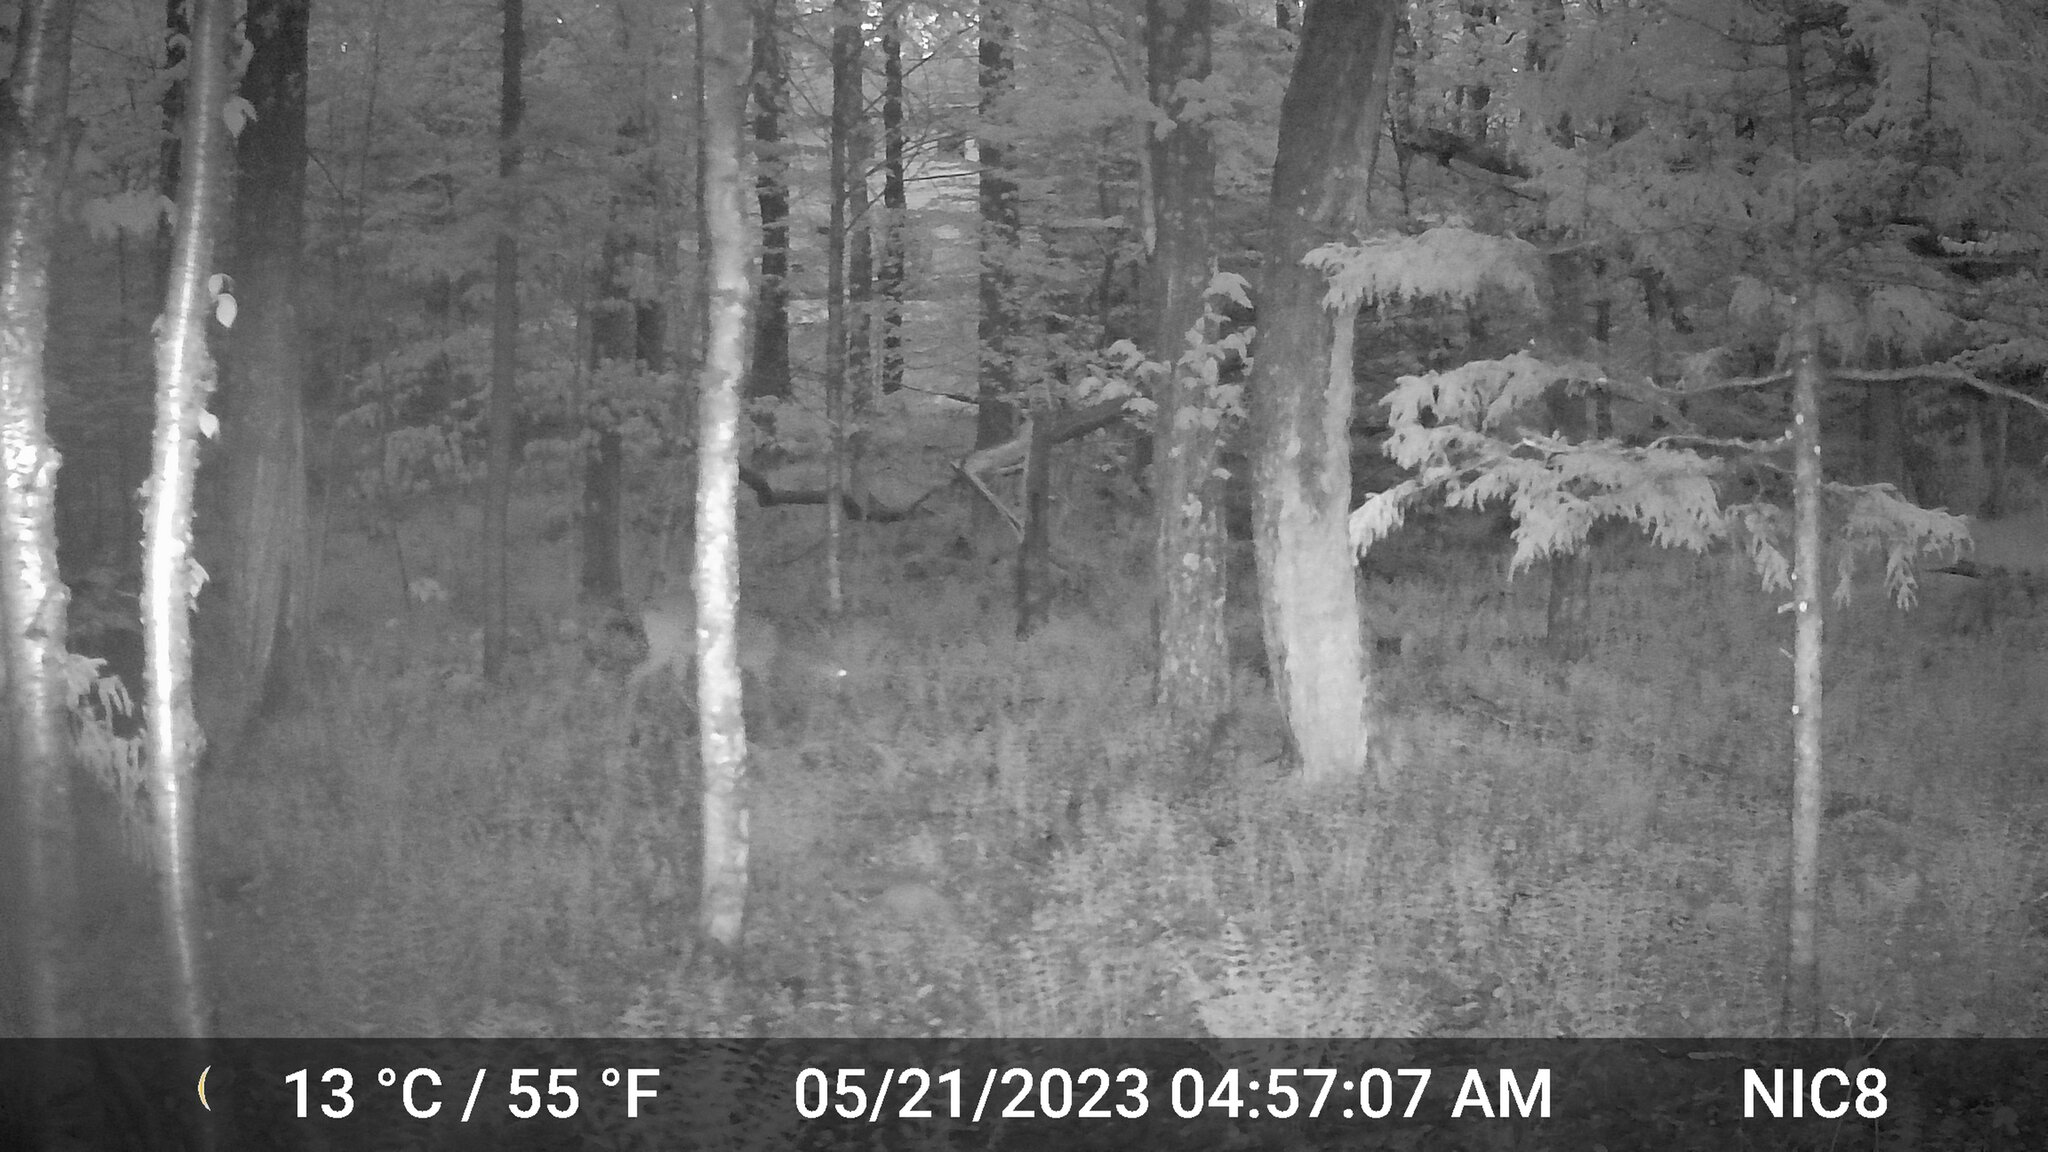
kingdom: Animalia
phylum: Chordata
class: Mammalia
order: Artiodactyla
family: Cervidae
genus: Odocoileus
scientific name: Odocoileus virginianus
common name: White-tailed deer
